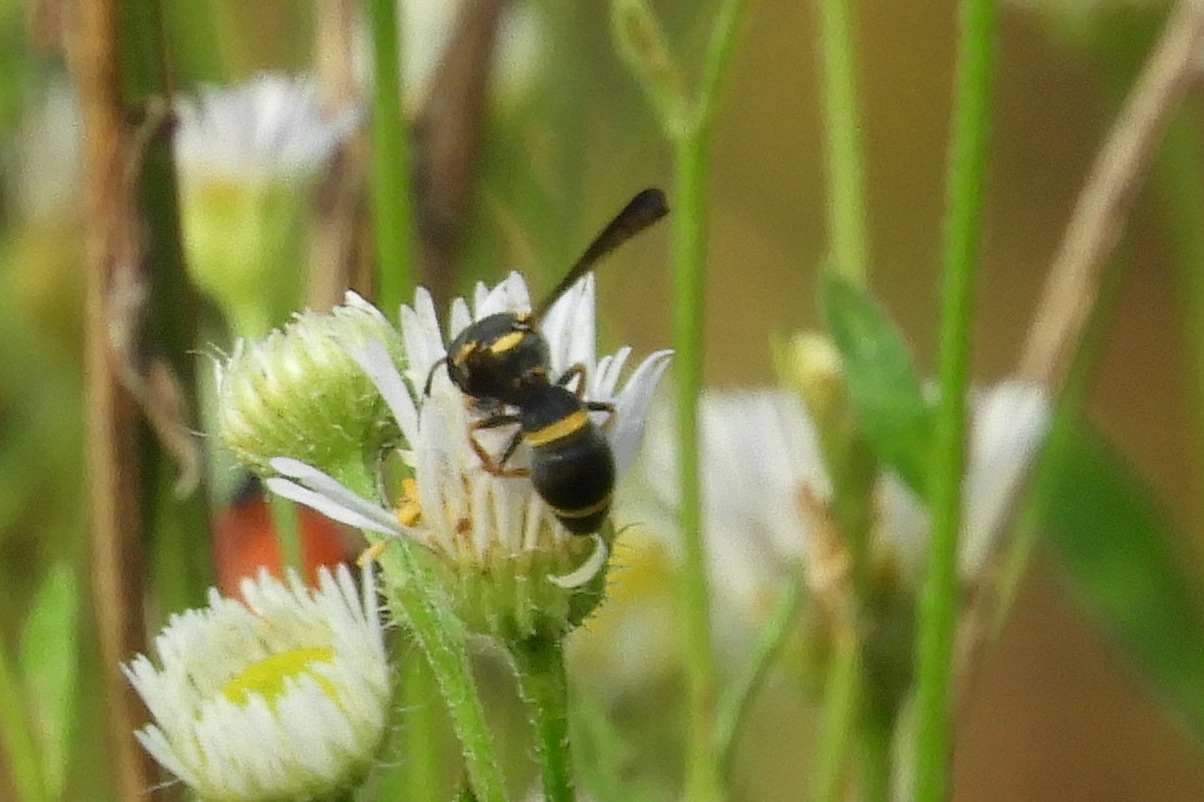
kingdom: Animalia
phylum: Arthropoda
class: Insecta
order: Hymenoptera
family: Eumenidae
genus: Parancistrocerus
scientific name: Parancistrocerus perennis
